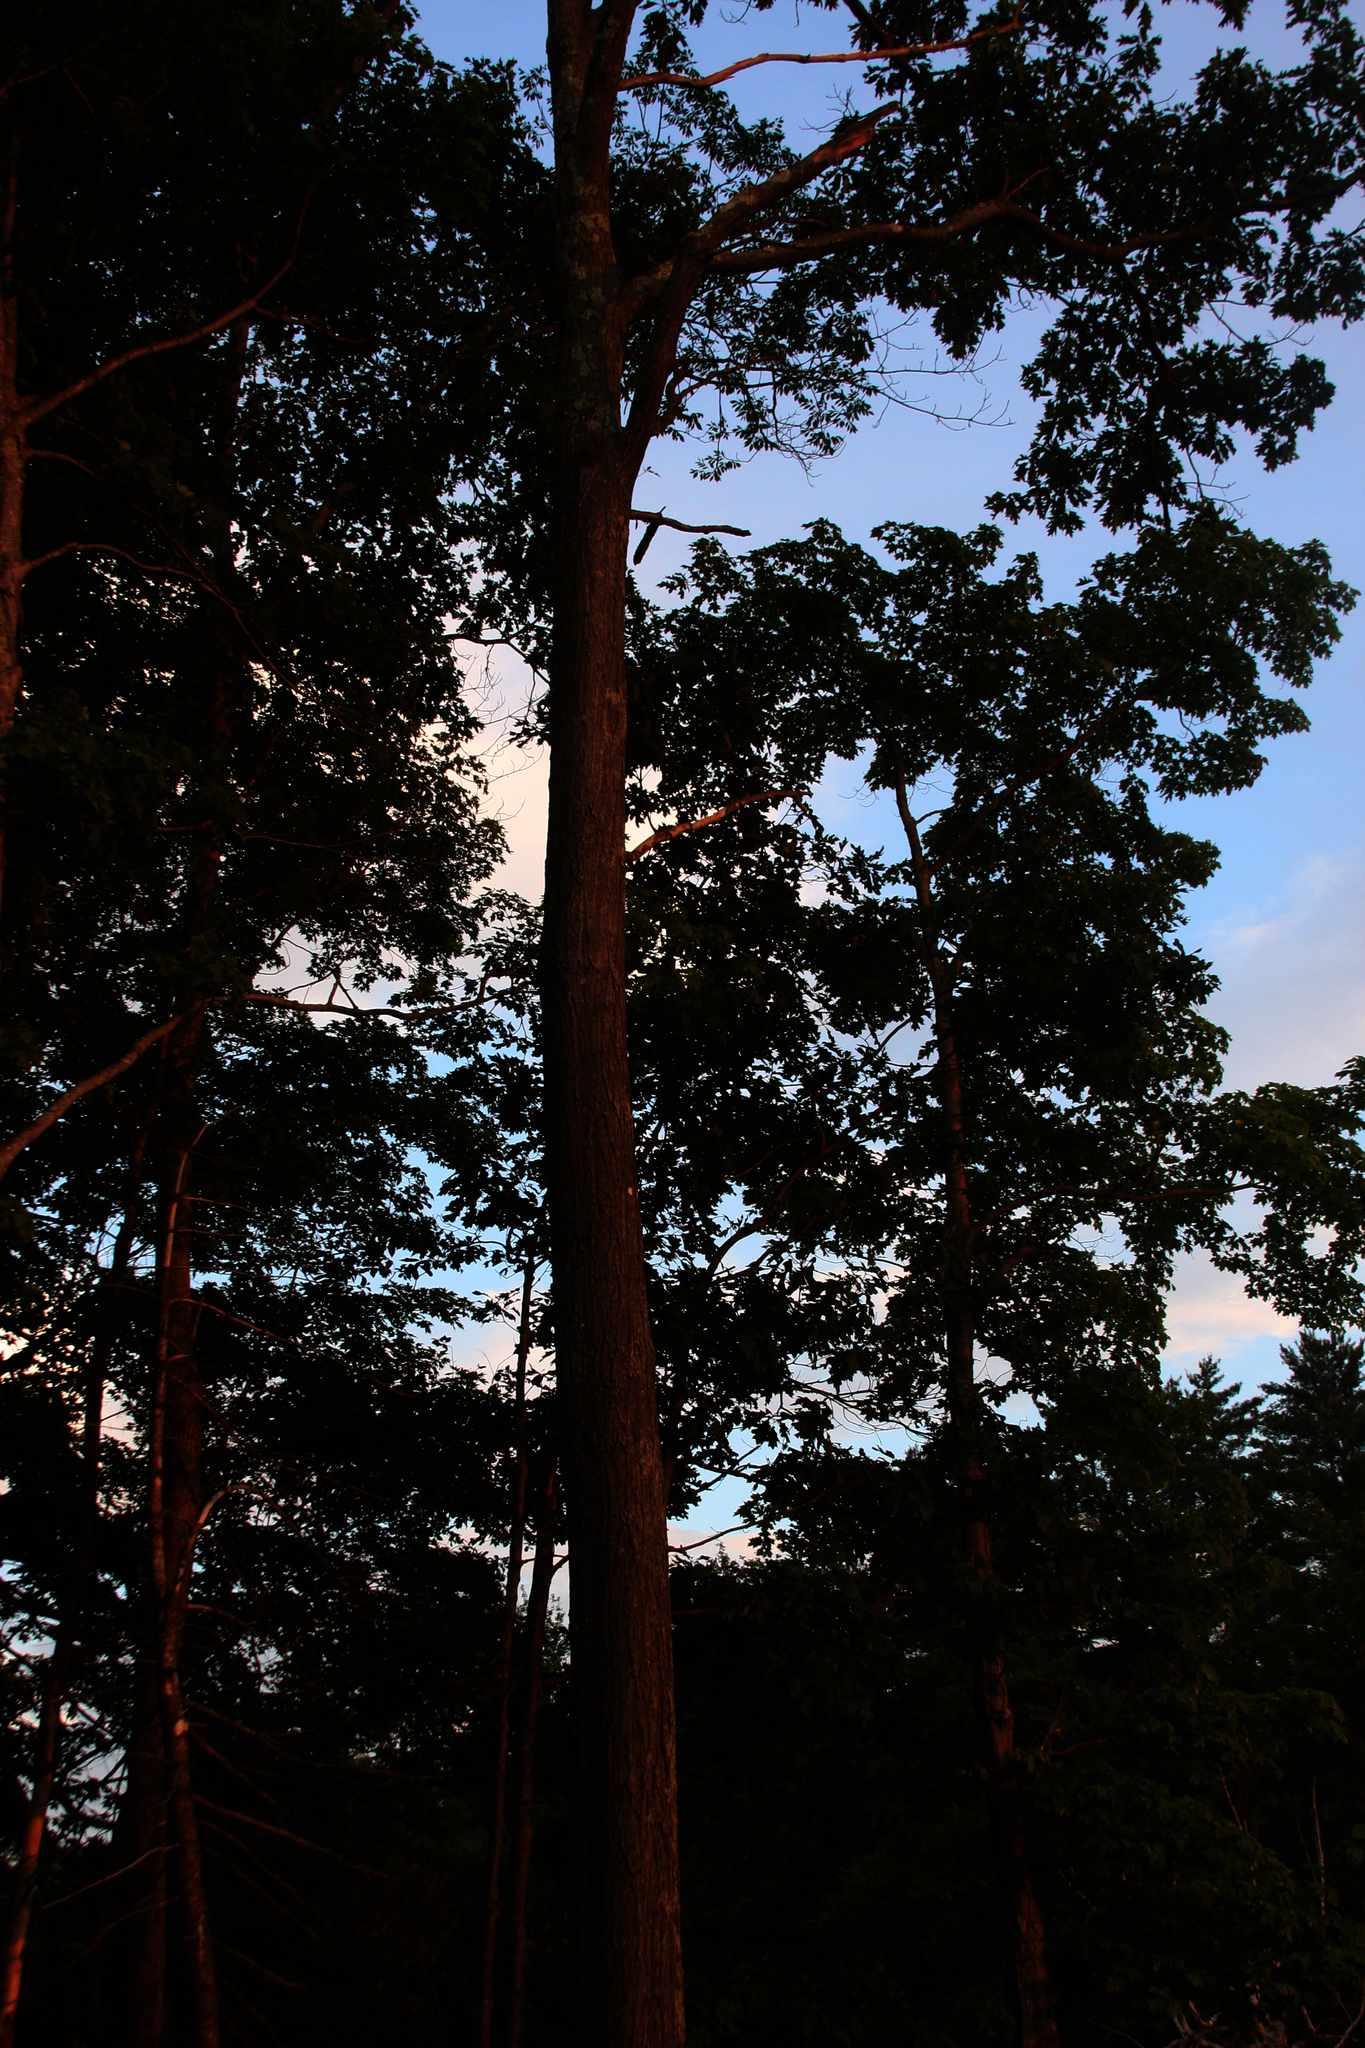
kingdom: Plantae
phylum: Tracheophyta
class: Magnoliopsida
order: Fagales
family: Fagaceae
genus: Quercus
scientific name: Quercus rubra
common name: Red oak
